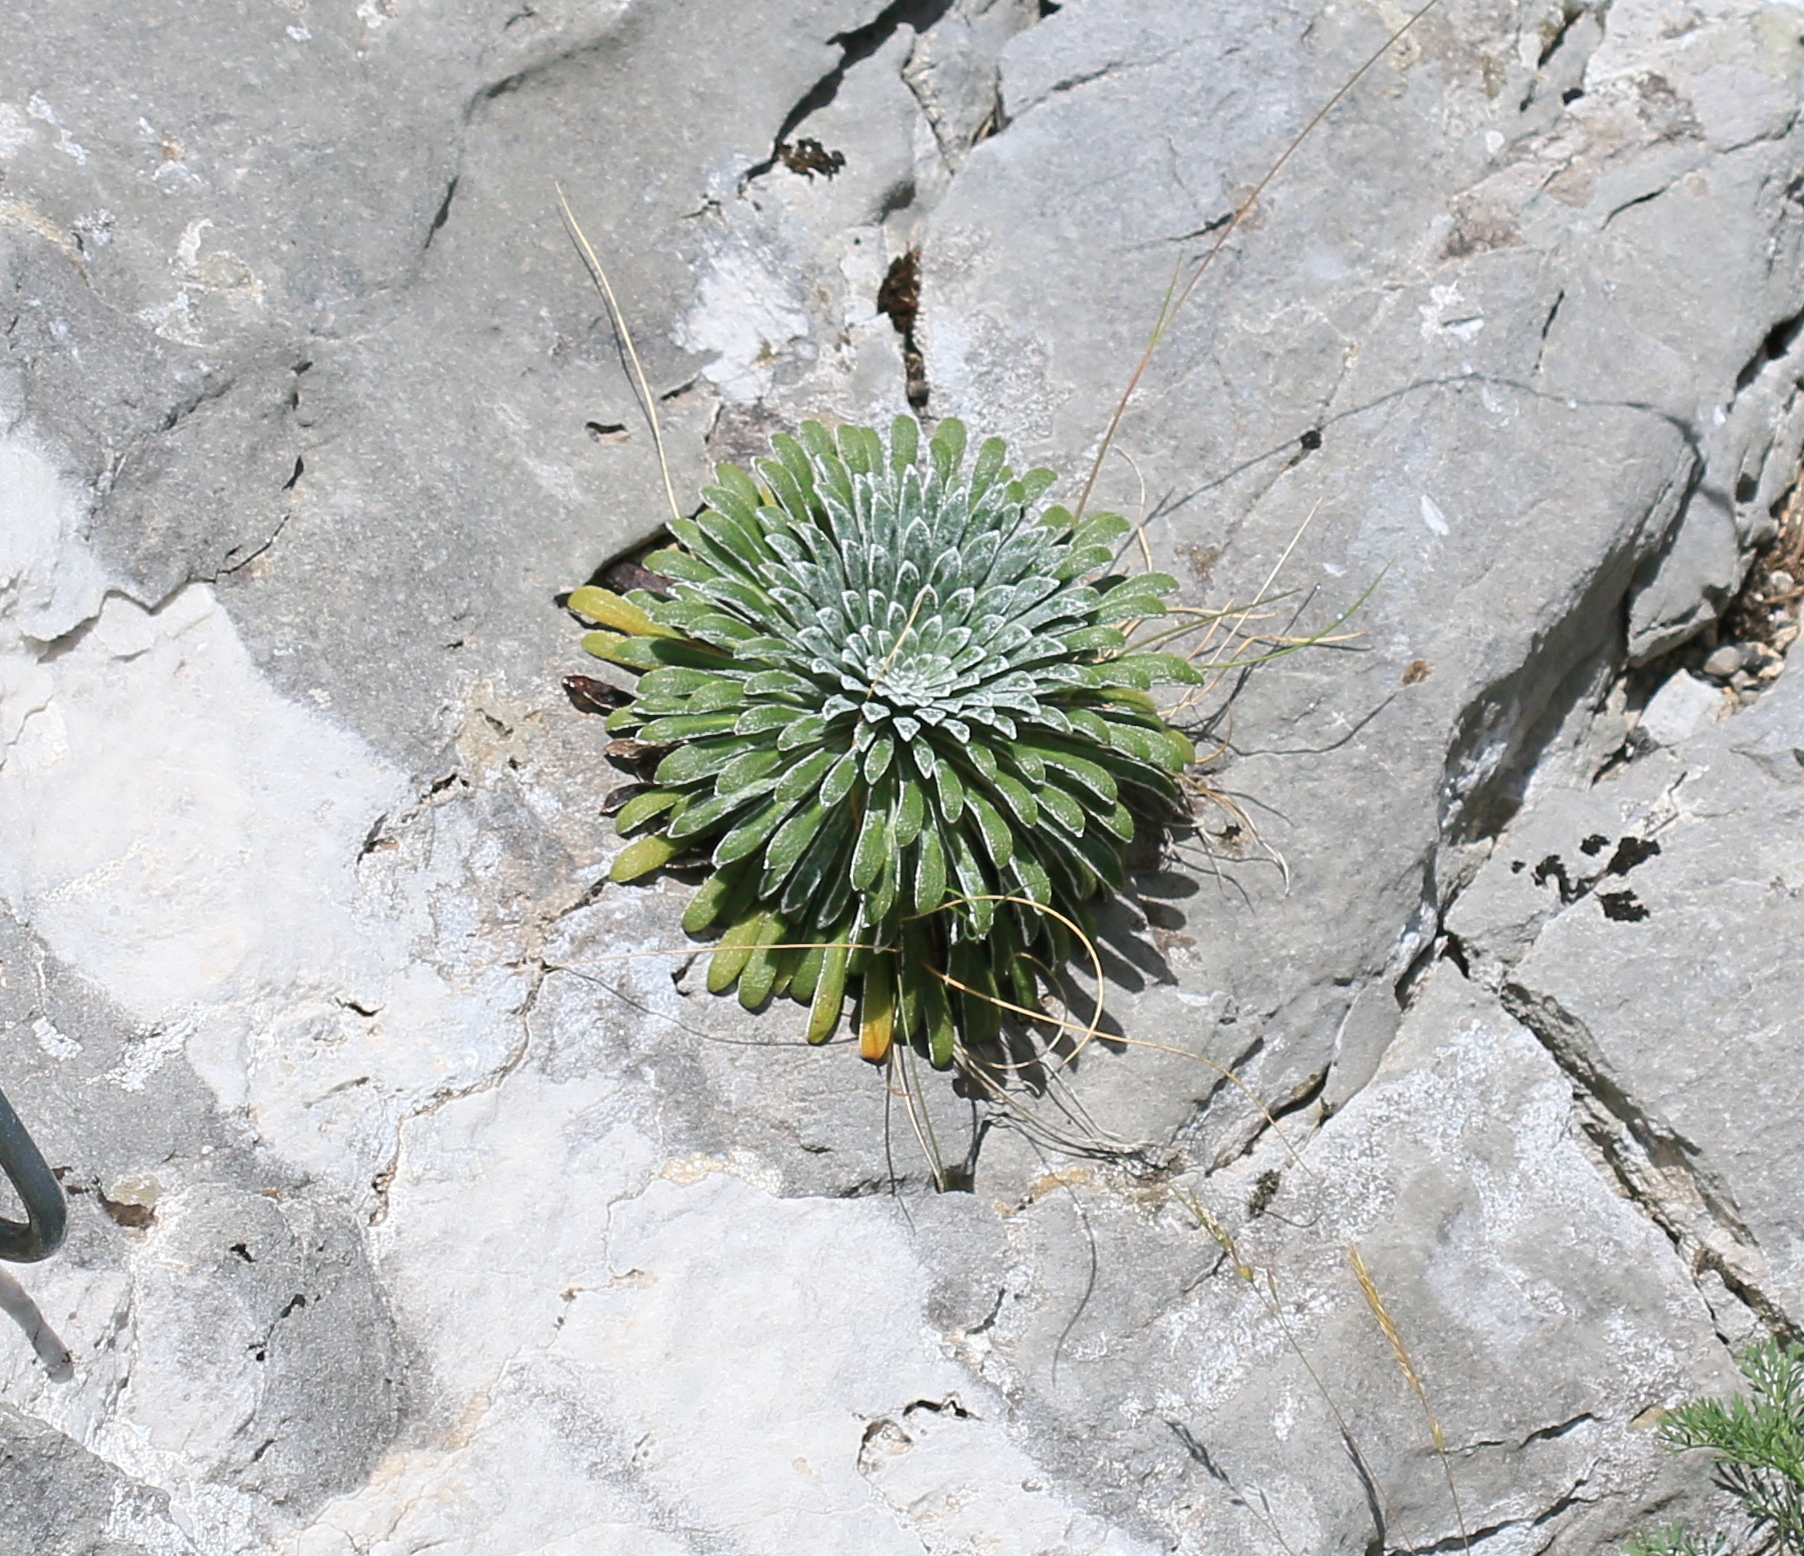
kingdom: Plantae
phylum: Tracheophyta
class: Magnoliopsida
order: Saxifragales
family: Saxifragaceae
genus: Saxifraga
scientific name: Saxifraga longifolia
